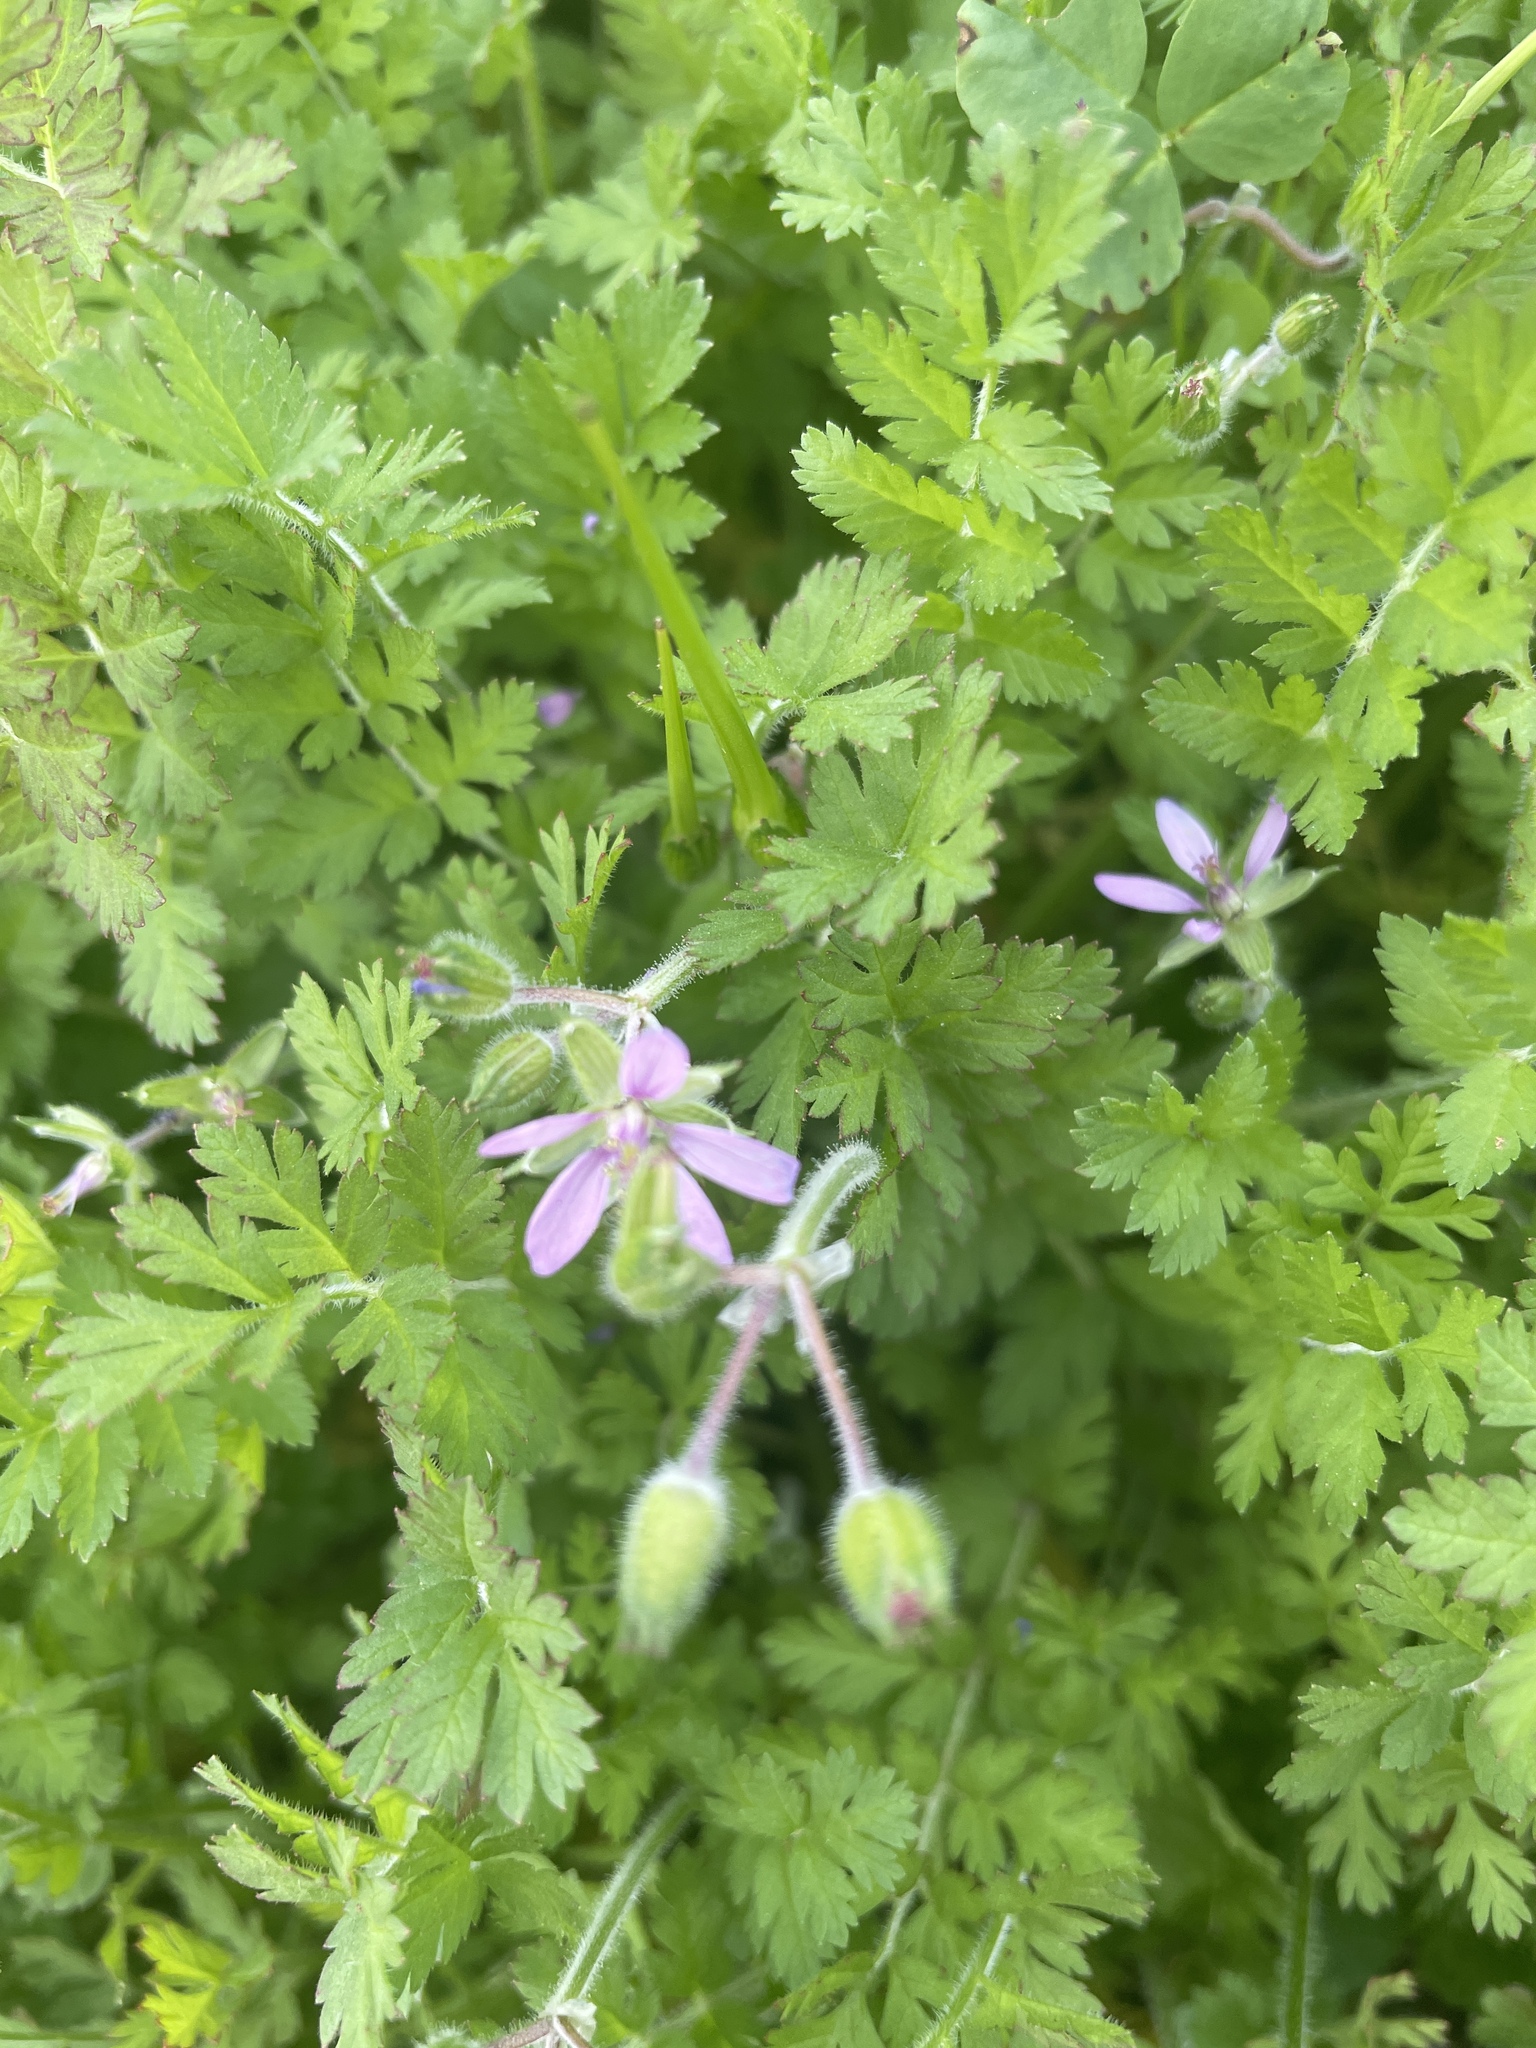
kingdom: Plantae
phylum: Tracheophyta
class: Magnoliopsida
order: Geraniales
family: Geraniaceae
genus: Erodium
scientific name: Erodium moschatum
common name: Musk stork's-bill
